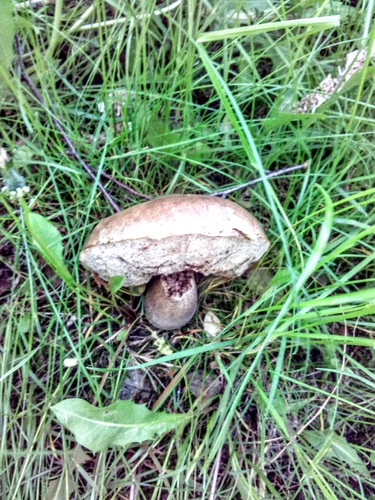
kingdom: Fungi
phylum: Basidiomycota
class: Agaricomycetes
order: Boletales
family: Boletaceae
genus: Leccinum
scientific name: Leccinum
